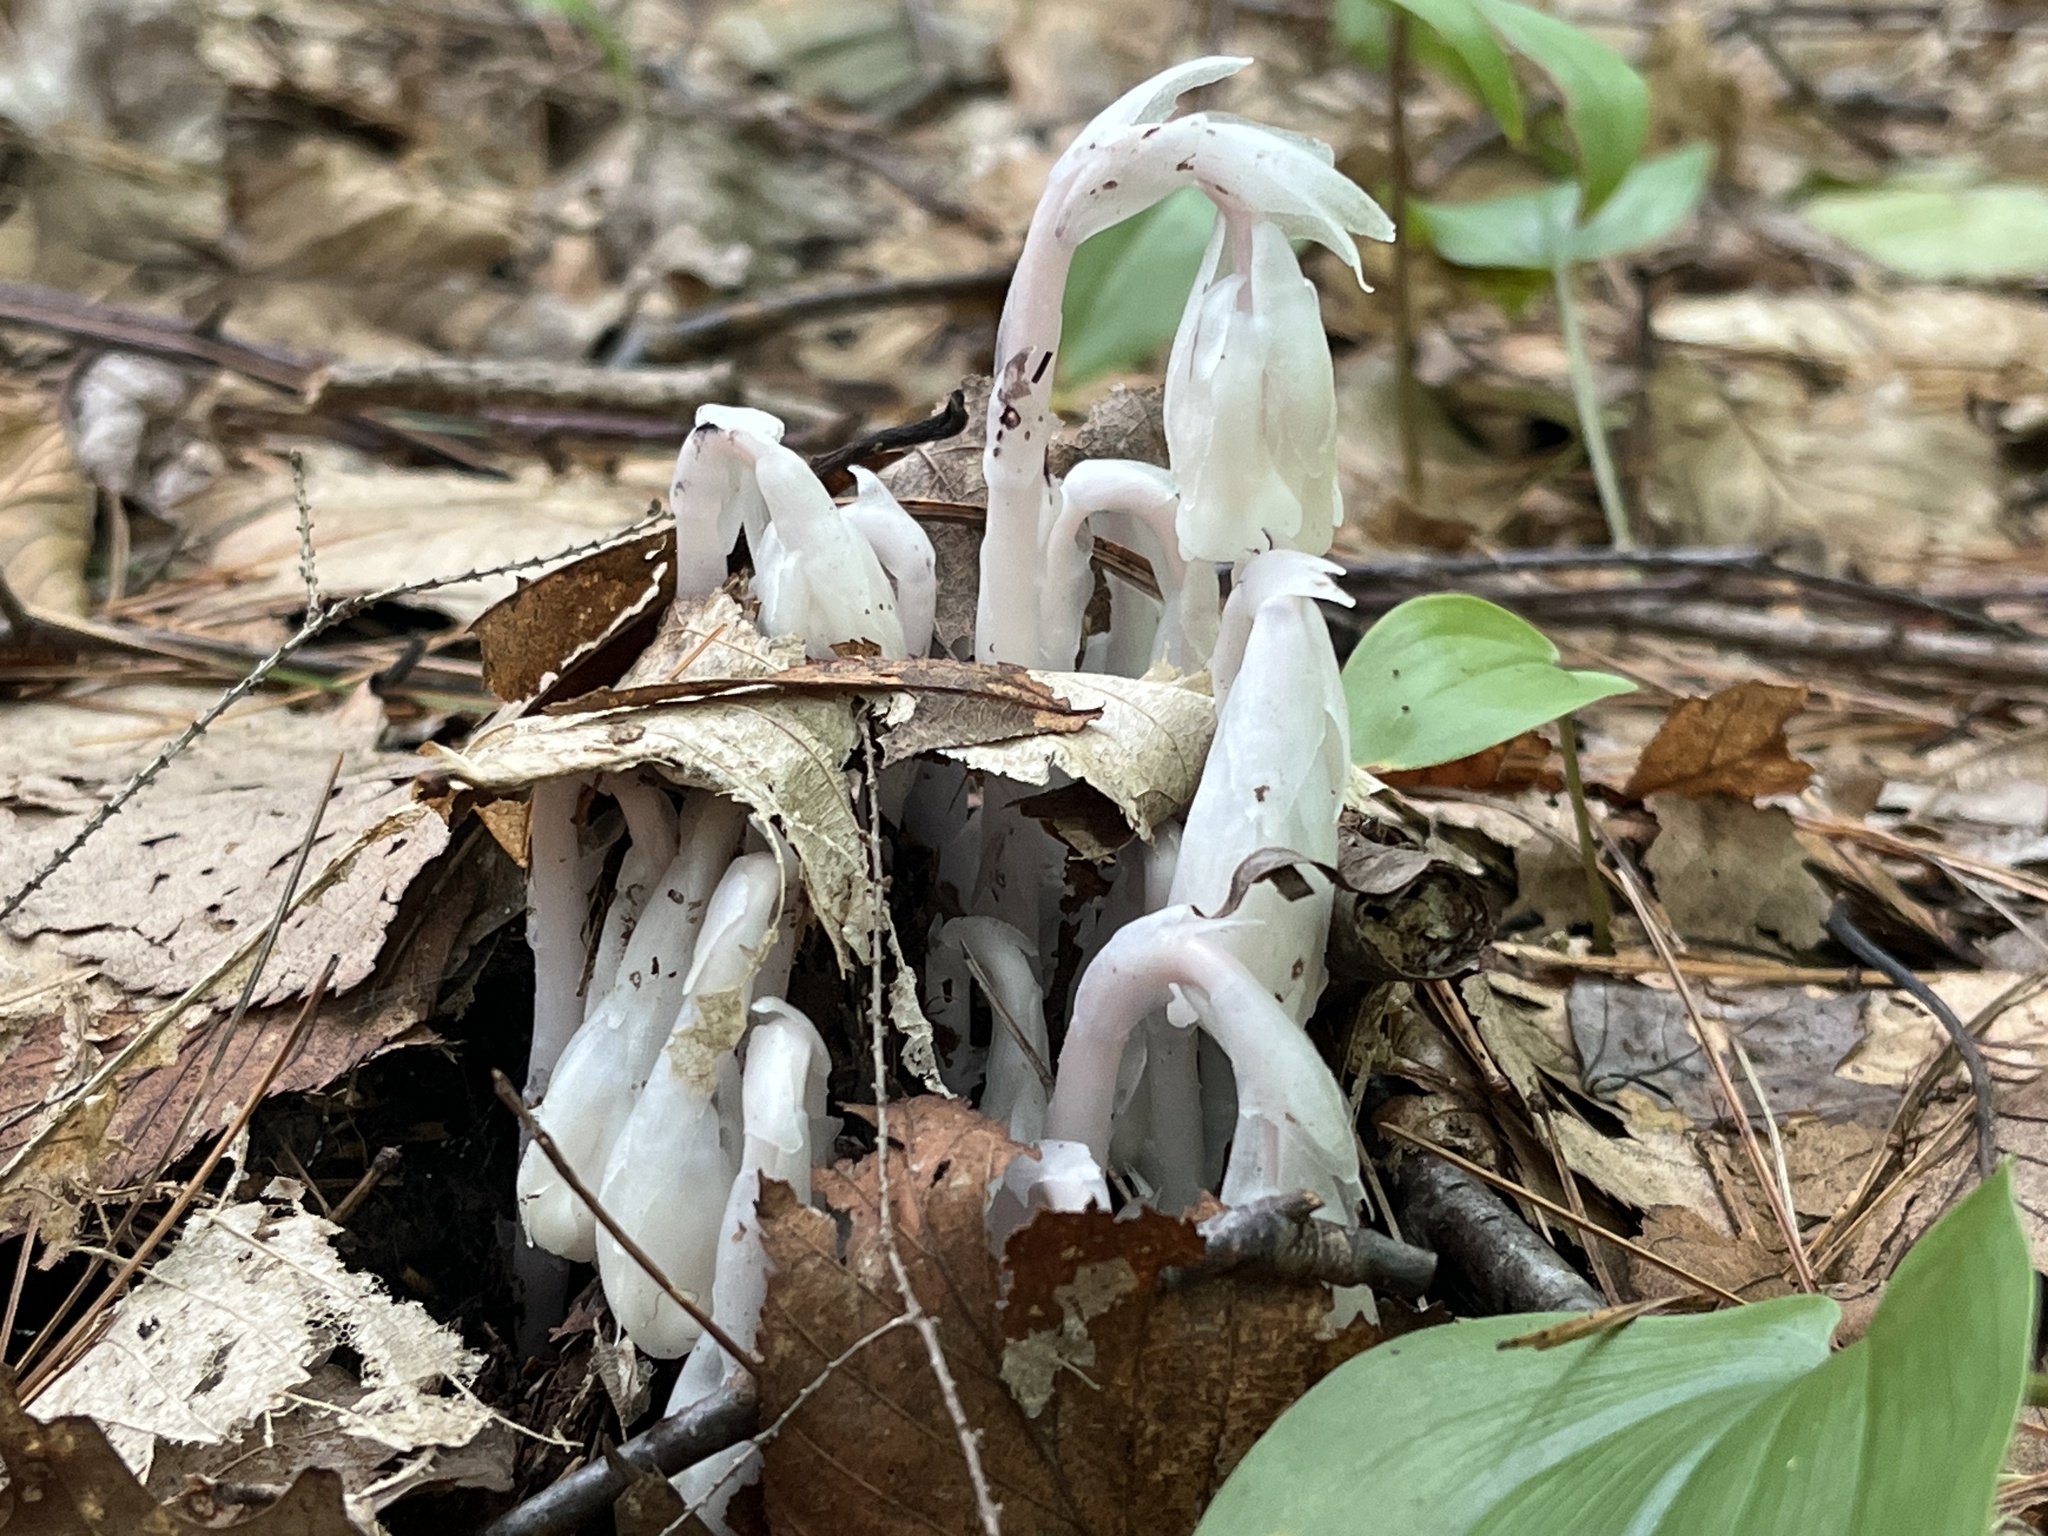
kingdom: Plantae
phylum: Tracheophyta
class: Magnoliopsida
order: Ericales
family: Ericaceae
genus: Monotropa
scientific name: Monotropa uniflora
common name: Convulsion root
